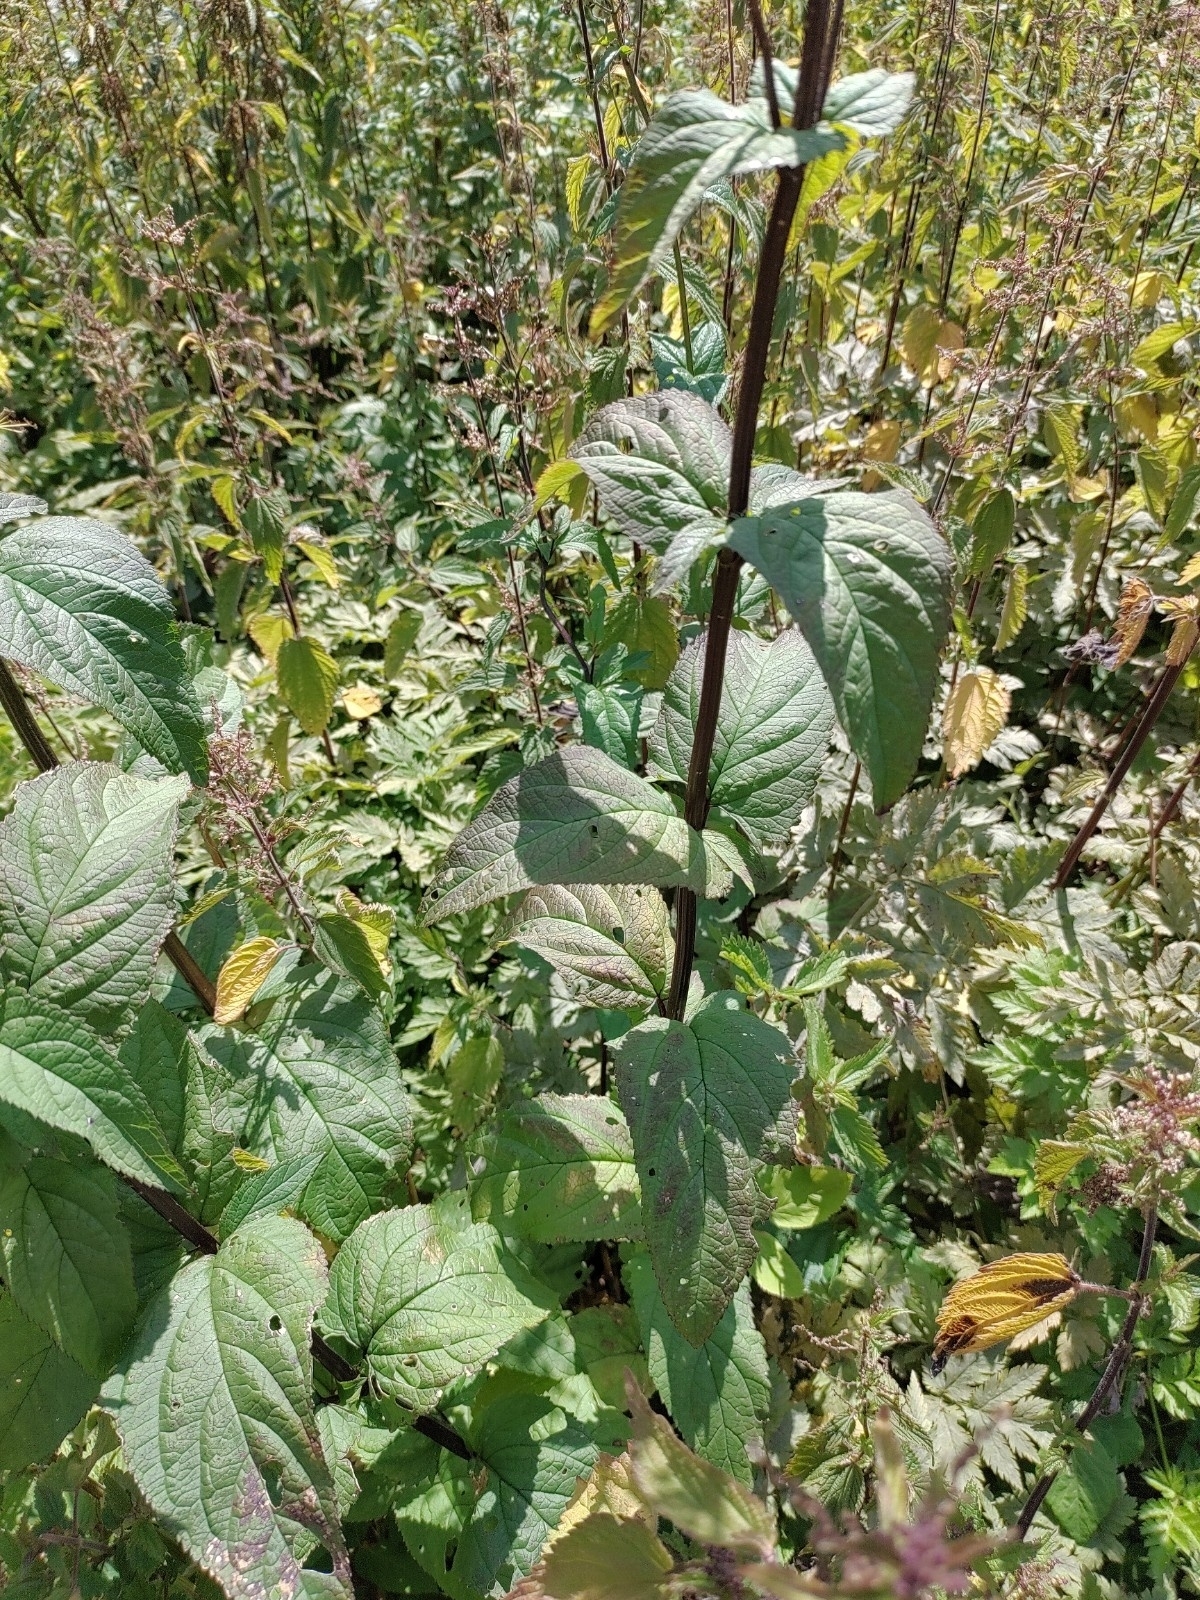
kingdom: Plantae
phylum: Tracheophyta
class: Magnoliopsida
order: Lamiales
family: Scrophulariaceae
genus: Scrophularia
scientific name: Scrophularia nodosa
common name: Common figwort
